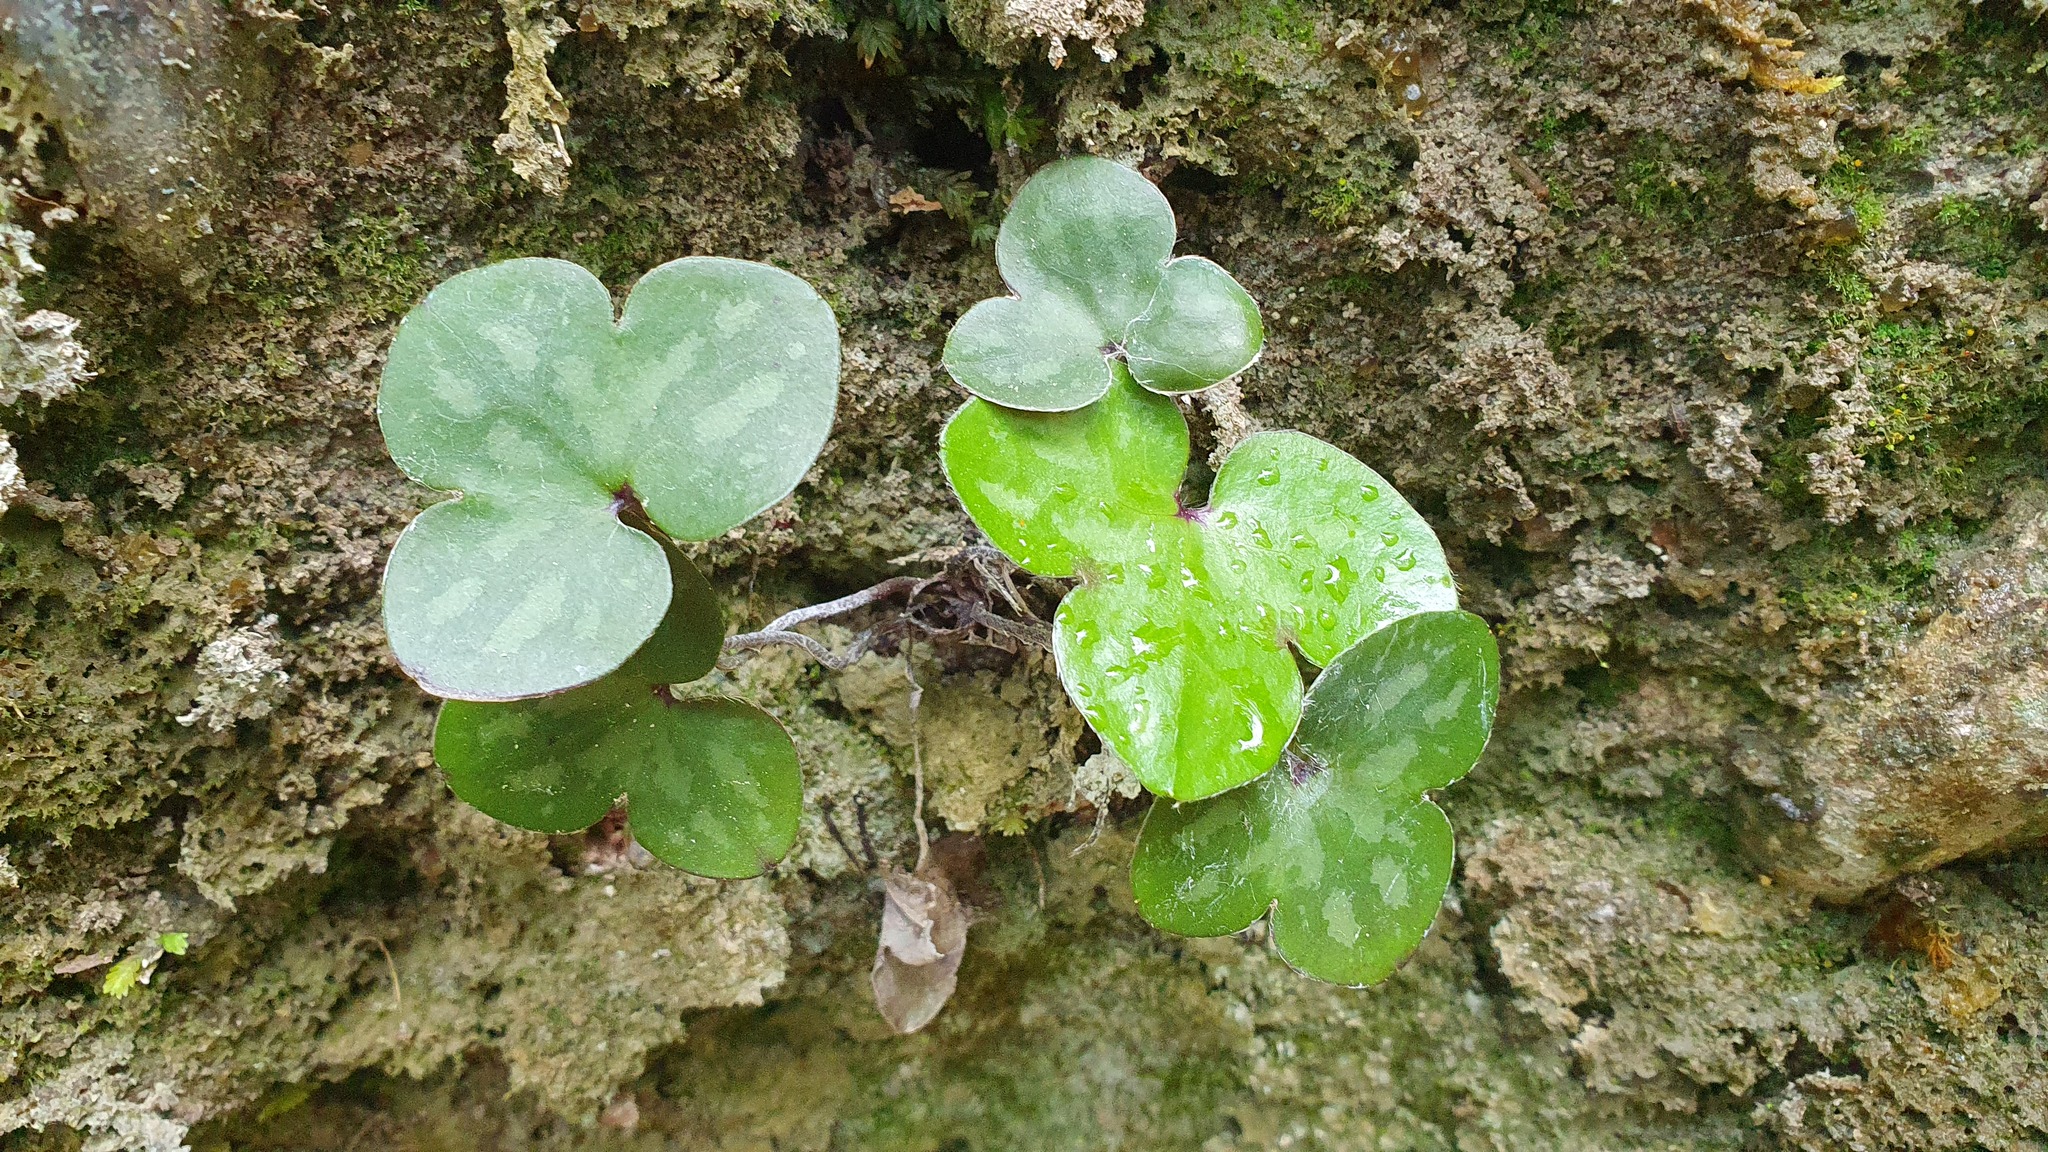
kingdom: Plantae
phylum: Tracheophyta
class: Magnoliopsida
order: Ranunculales
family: Ranunculaceae
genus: Hepatica
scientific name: Hepatica nobilis
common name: Liverleaf
